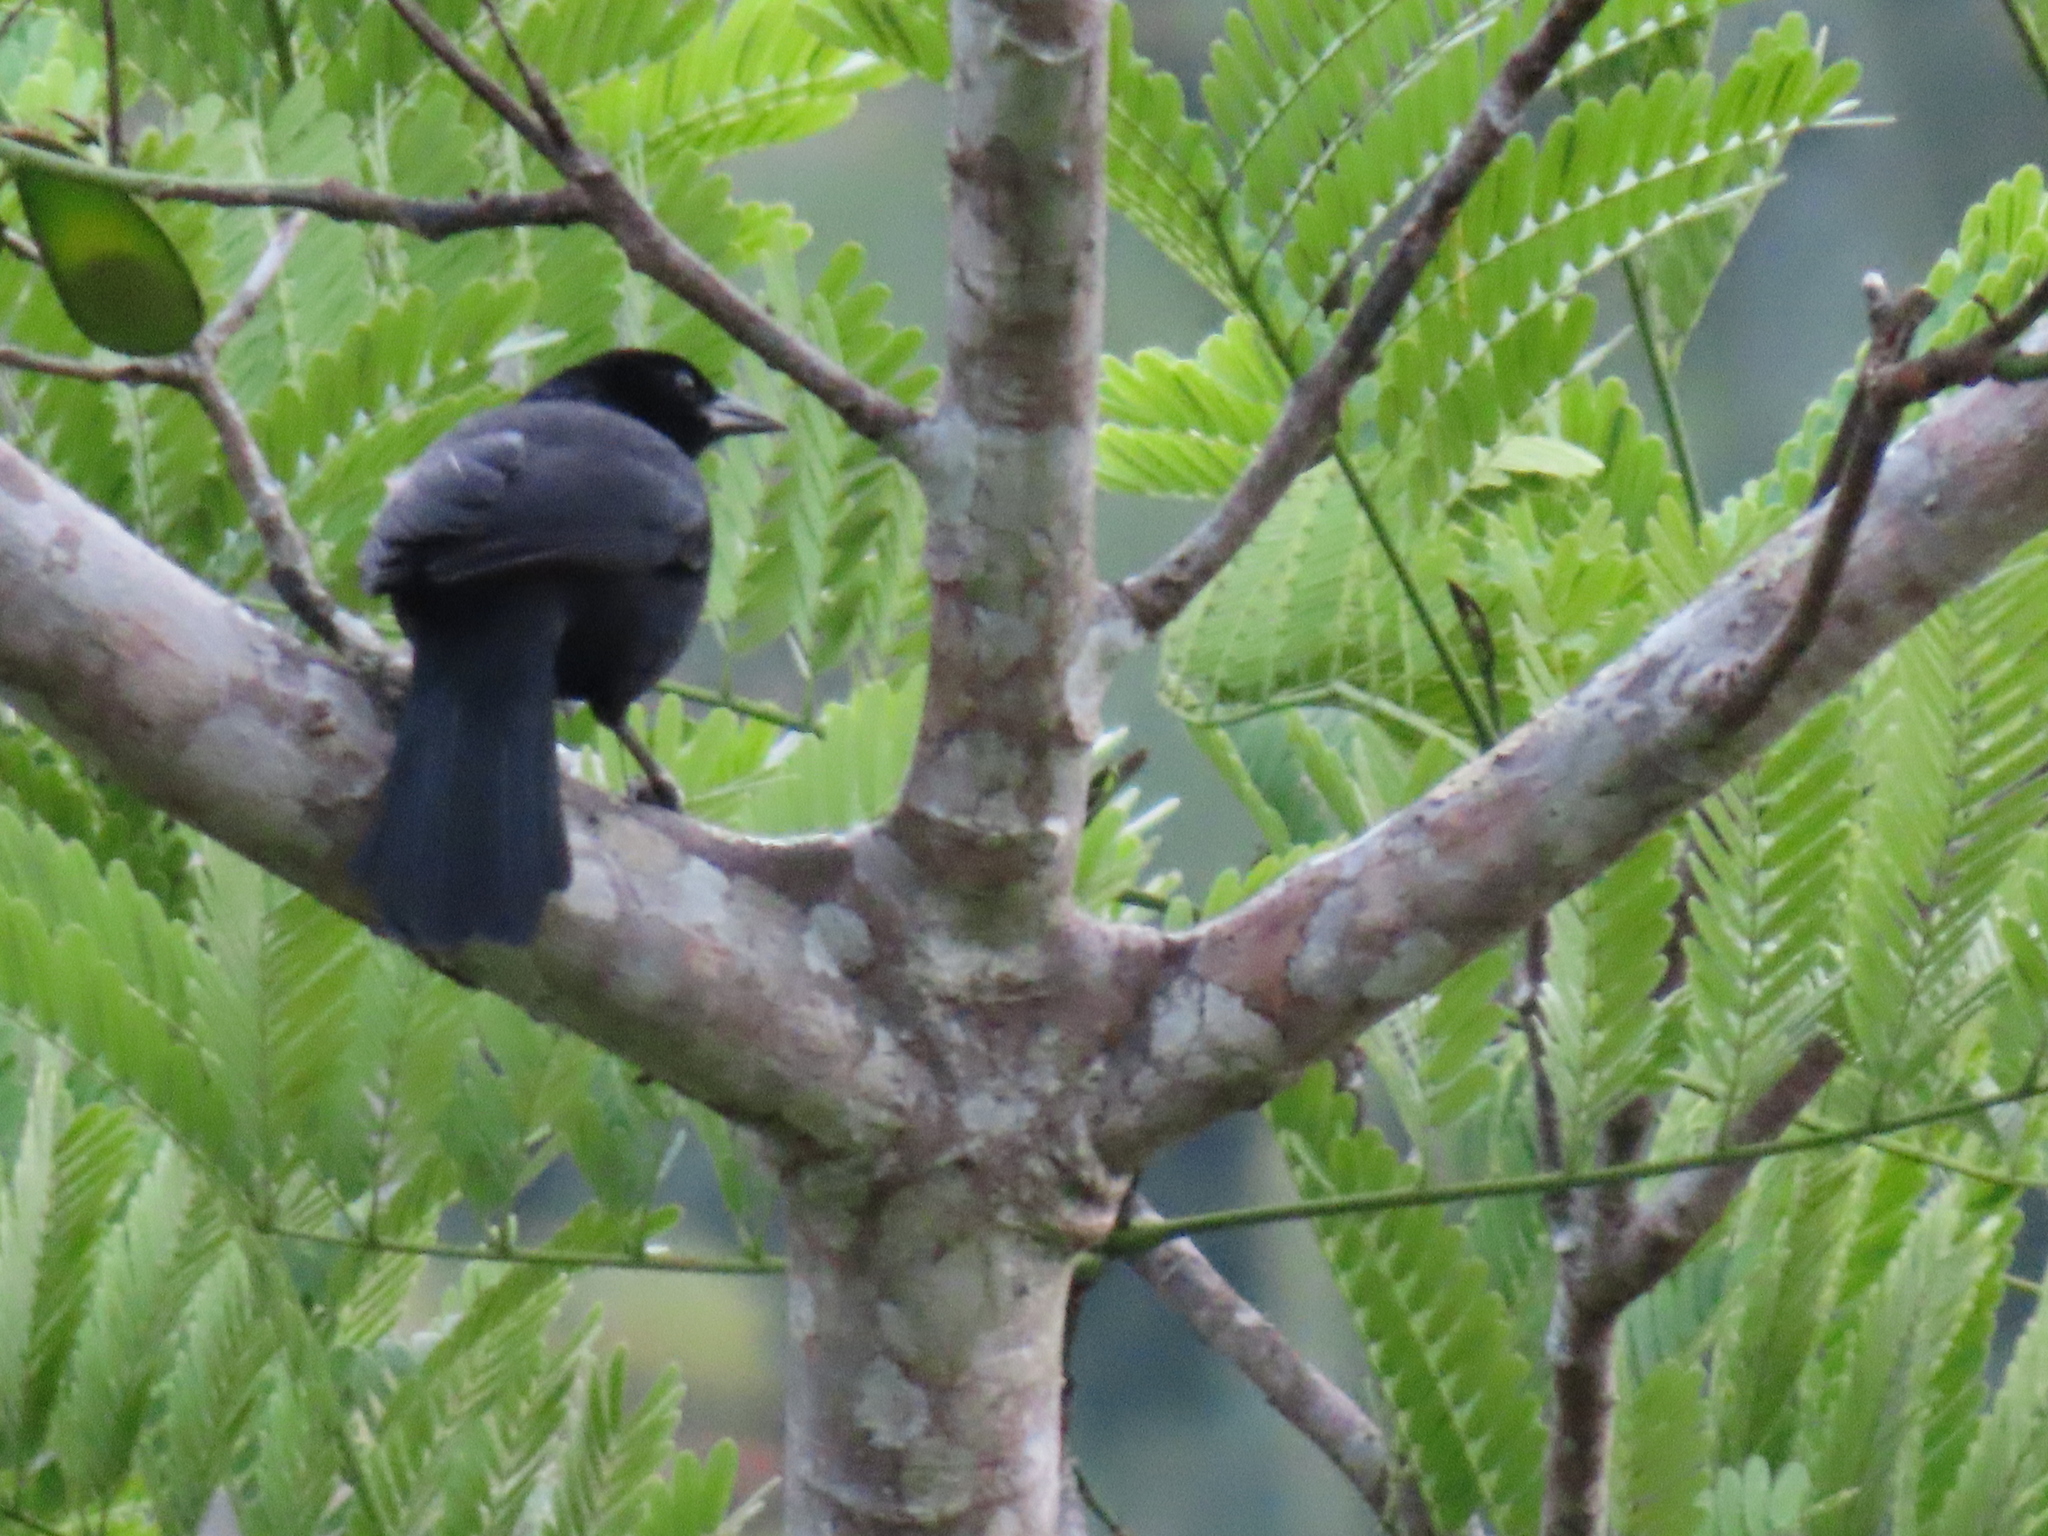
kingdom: Animalia
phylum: Chordata
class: Aves
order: Passeriformes
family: Icteridae
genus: Dives
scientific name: Dives dives
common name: Melodious blackbird
